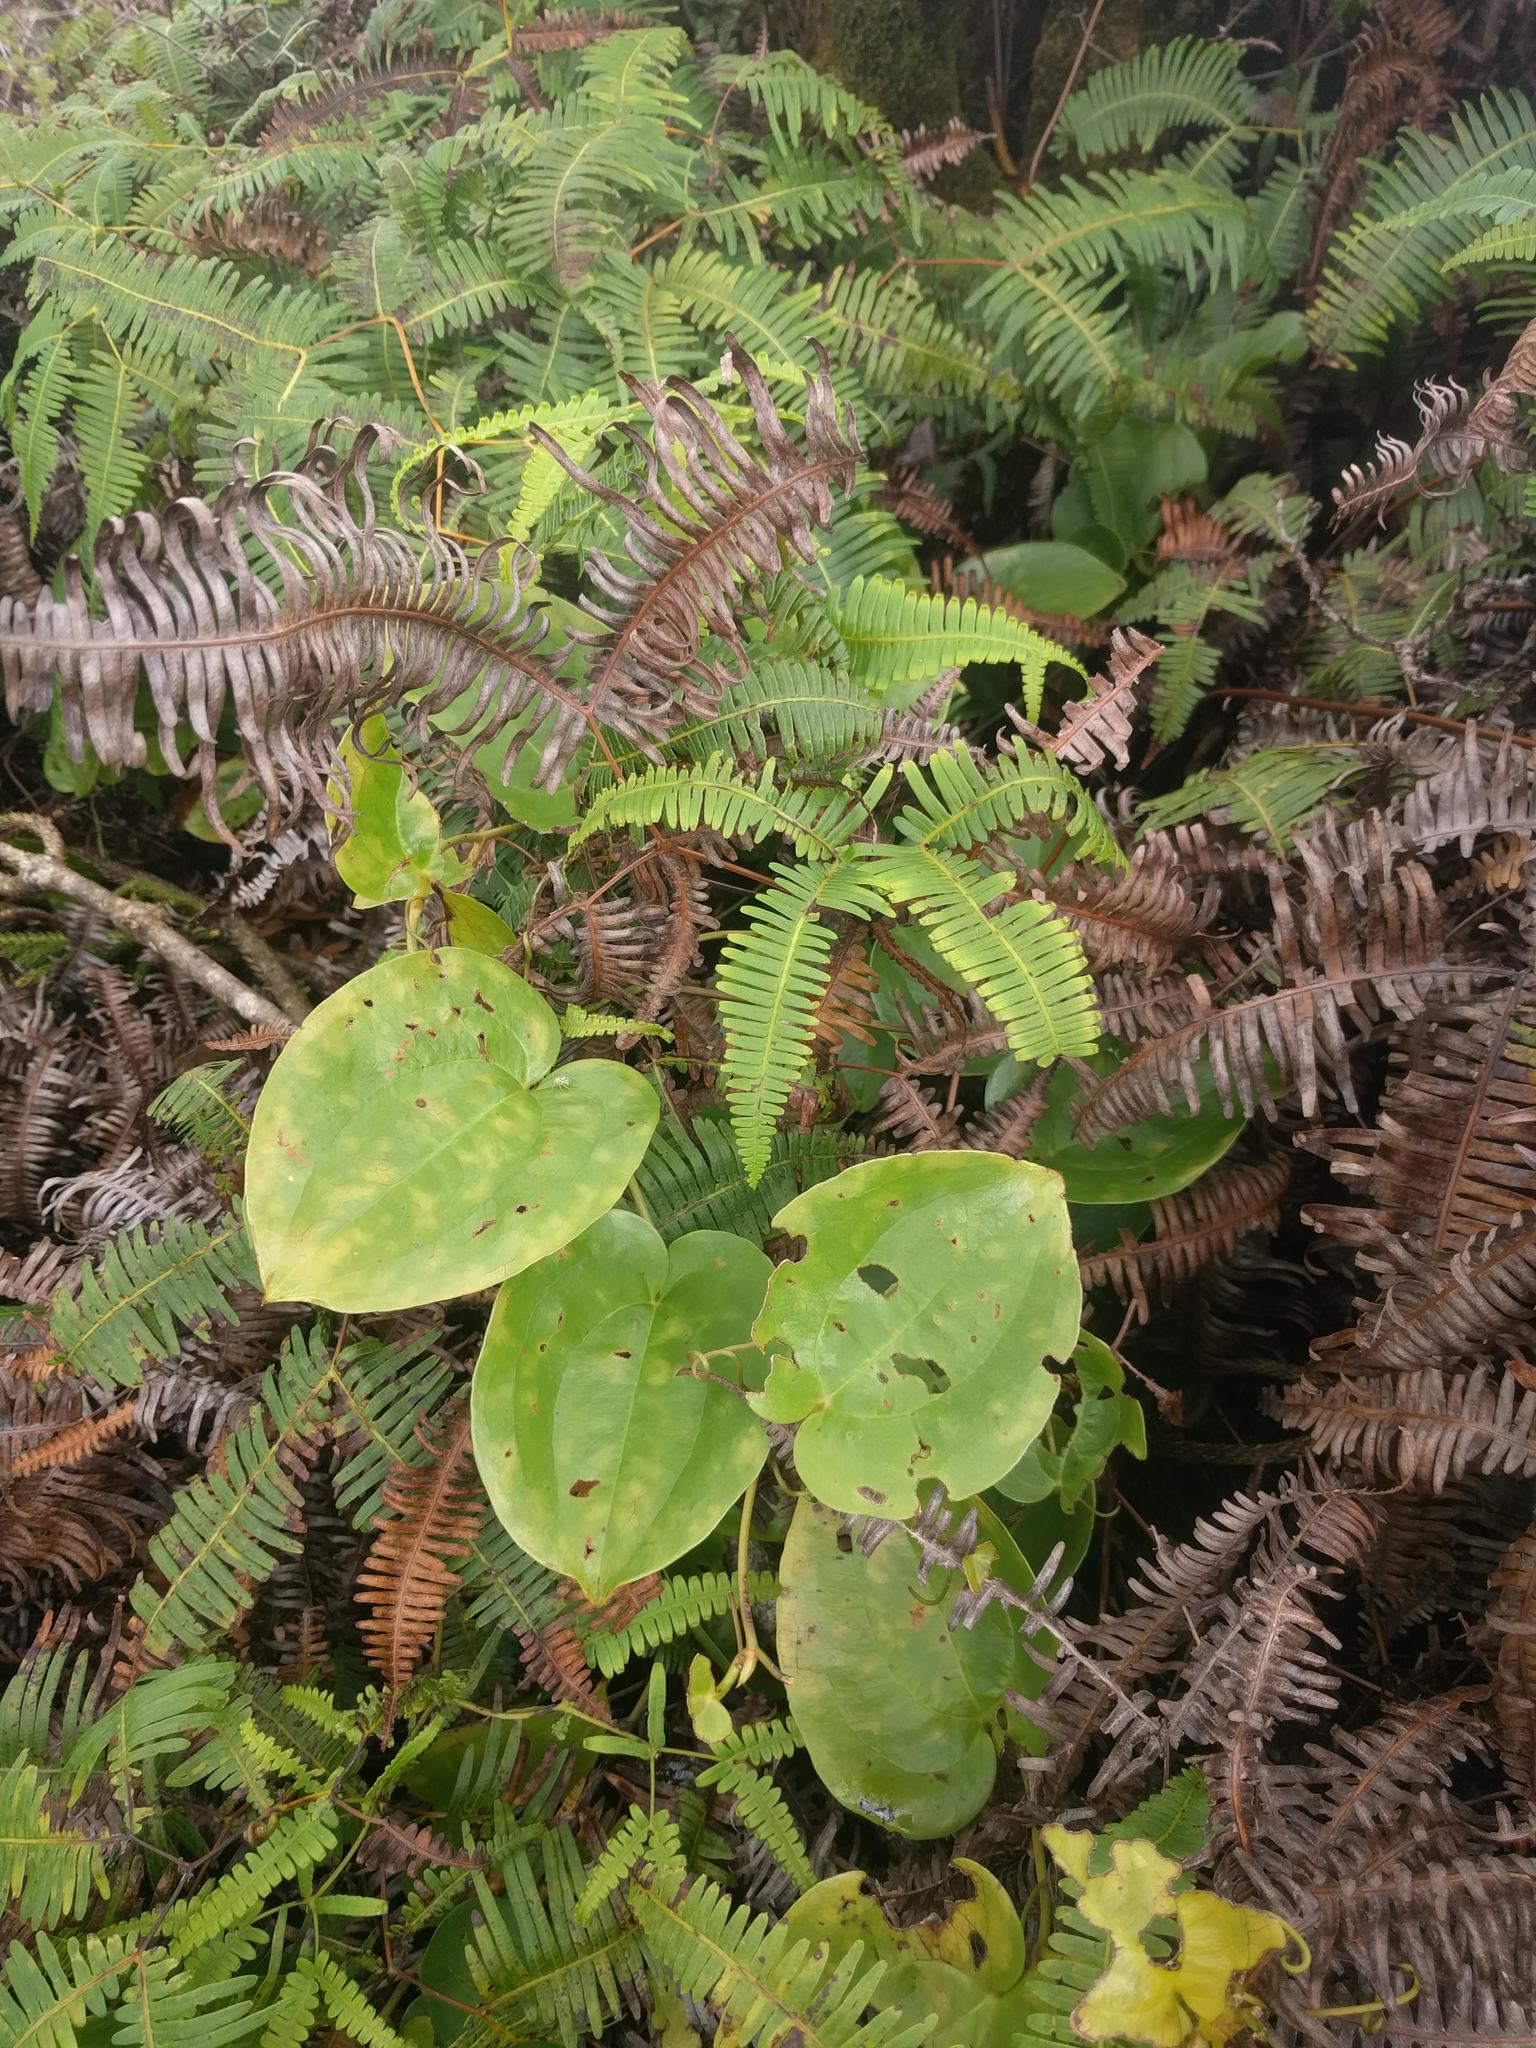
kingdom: Plantae
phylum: Tracheophyta
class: Liliopsida
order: Liliales
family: Smilacaceae
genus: Smilax
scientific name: Smilax melastomifolia
